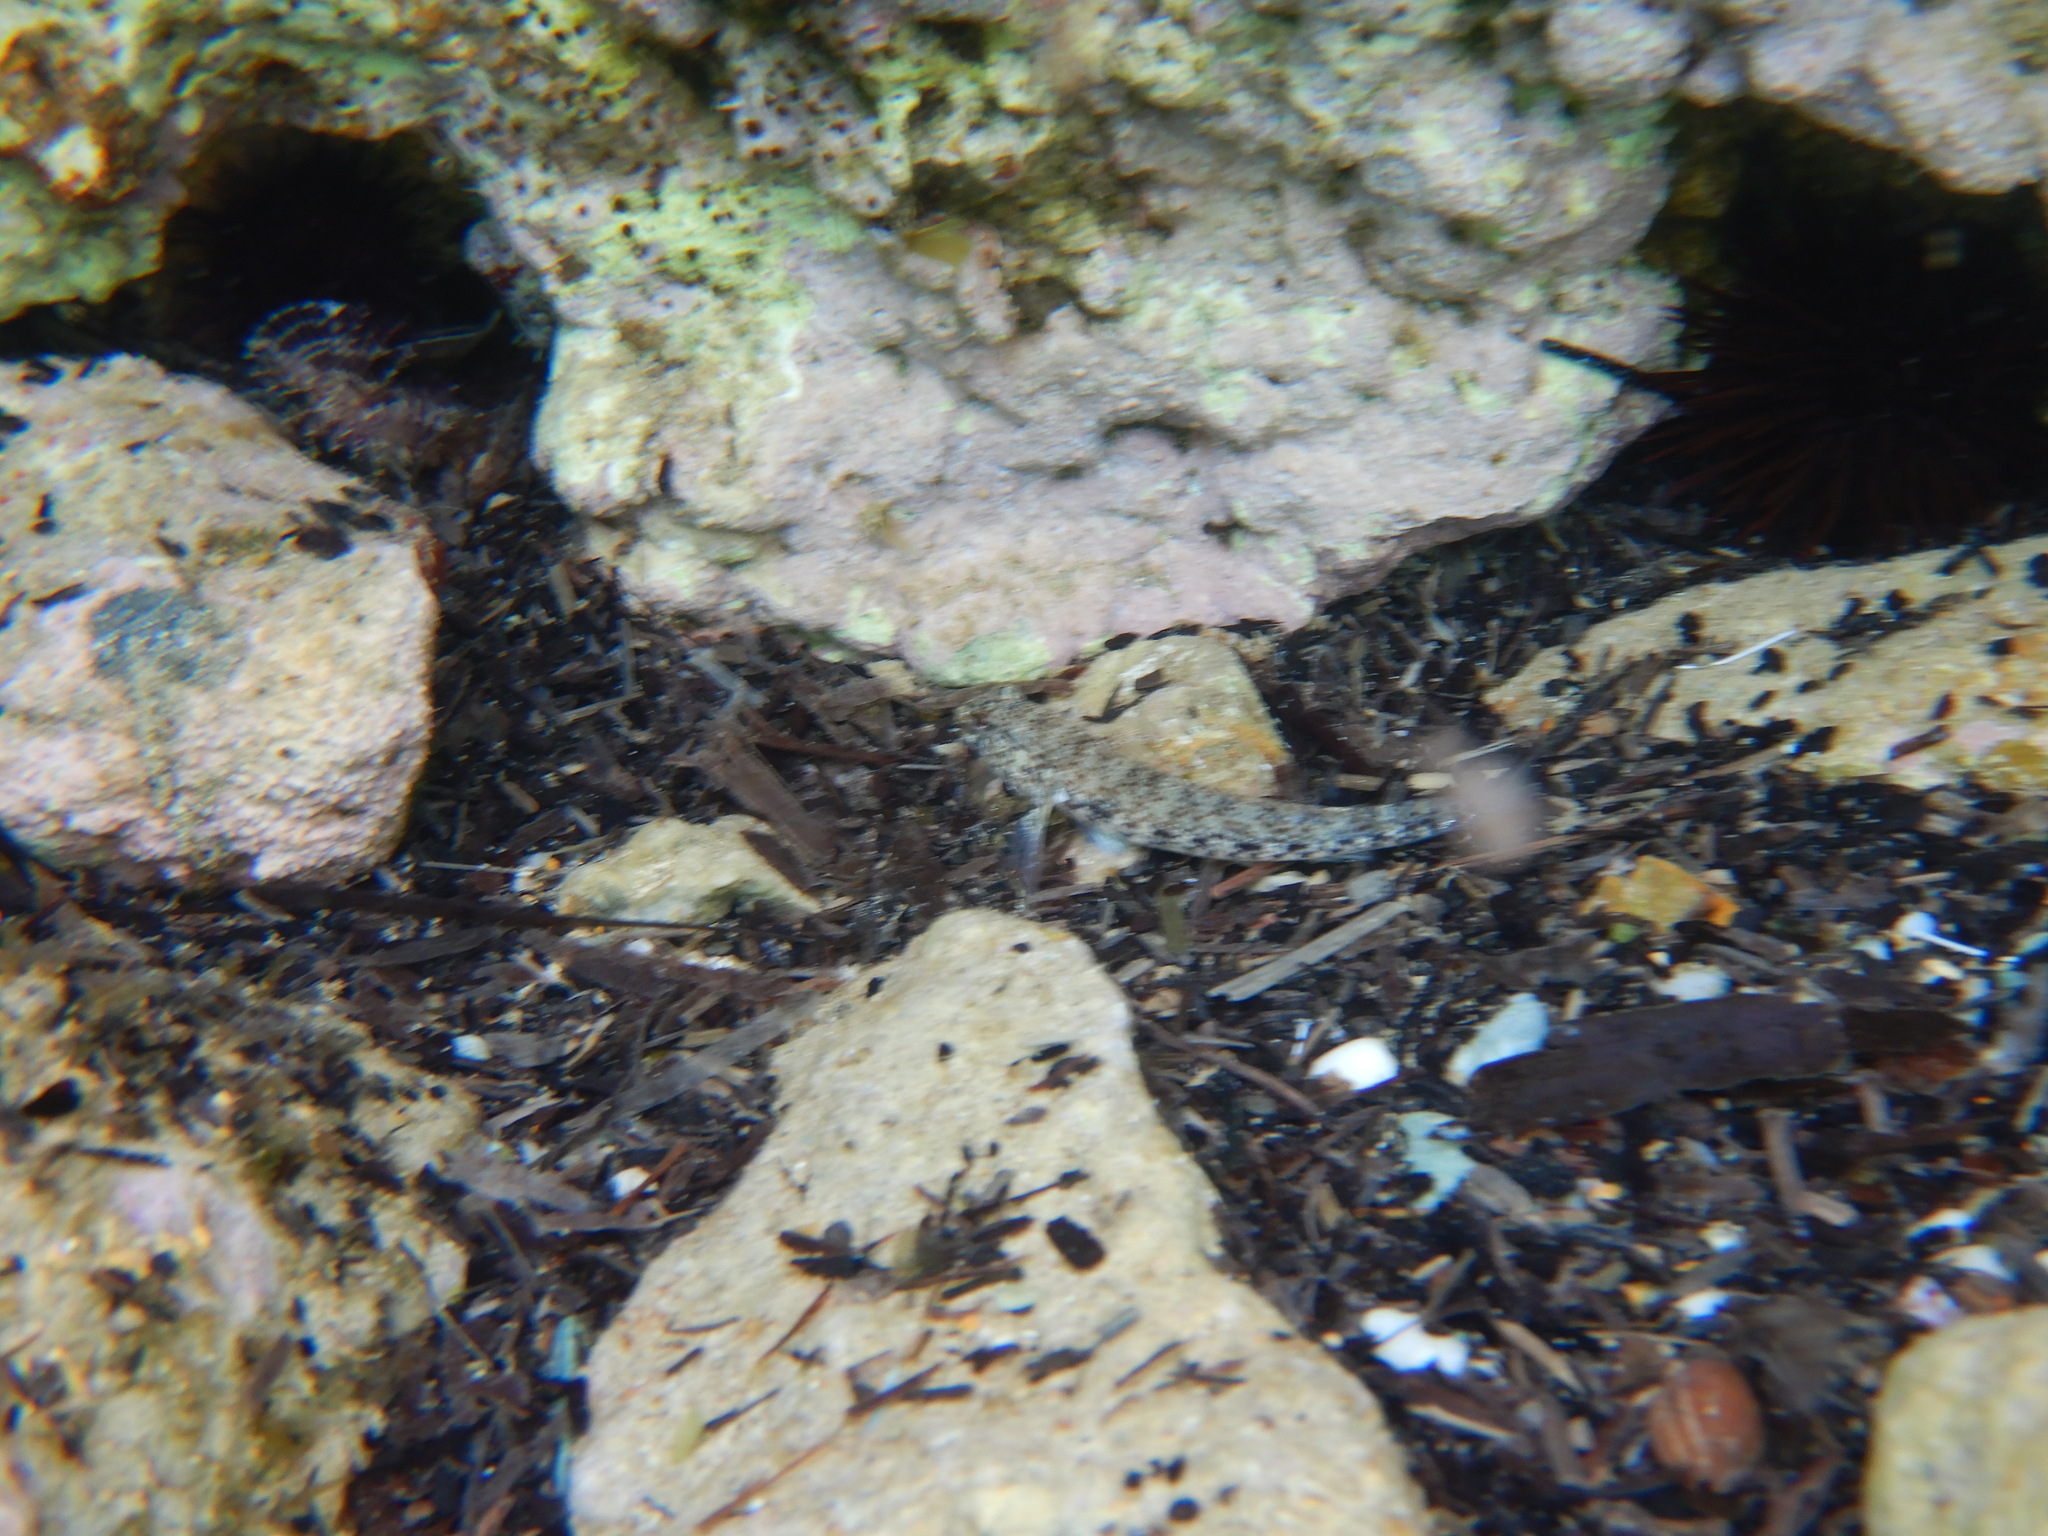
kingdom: Animalia
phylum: Chordata
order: Perciformes
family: Gobiidae
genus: Gobius
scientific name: Gobius incognitus
